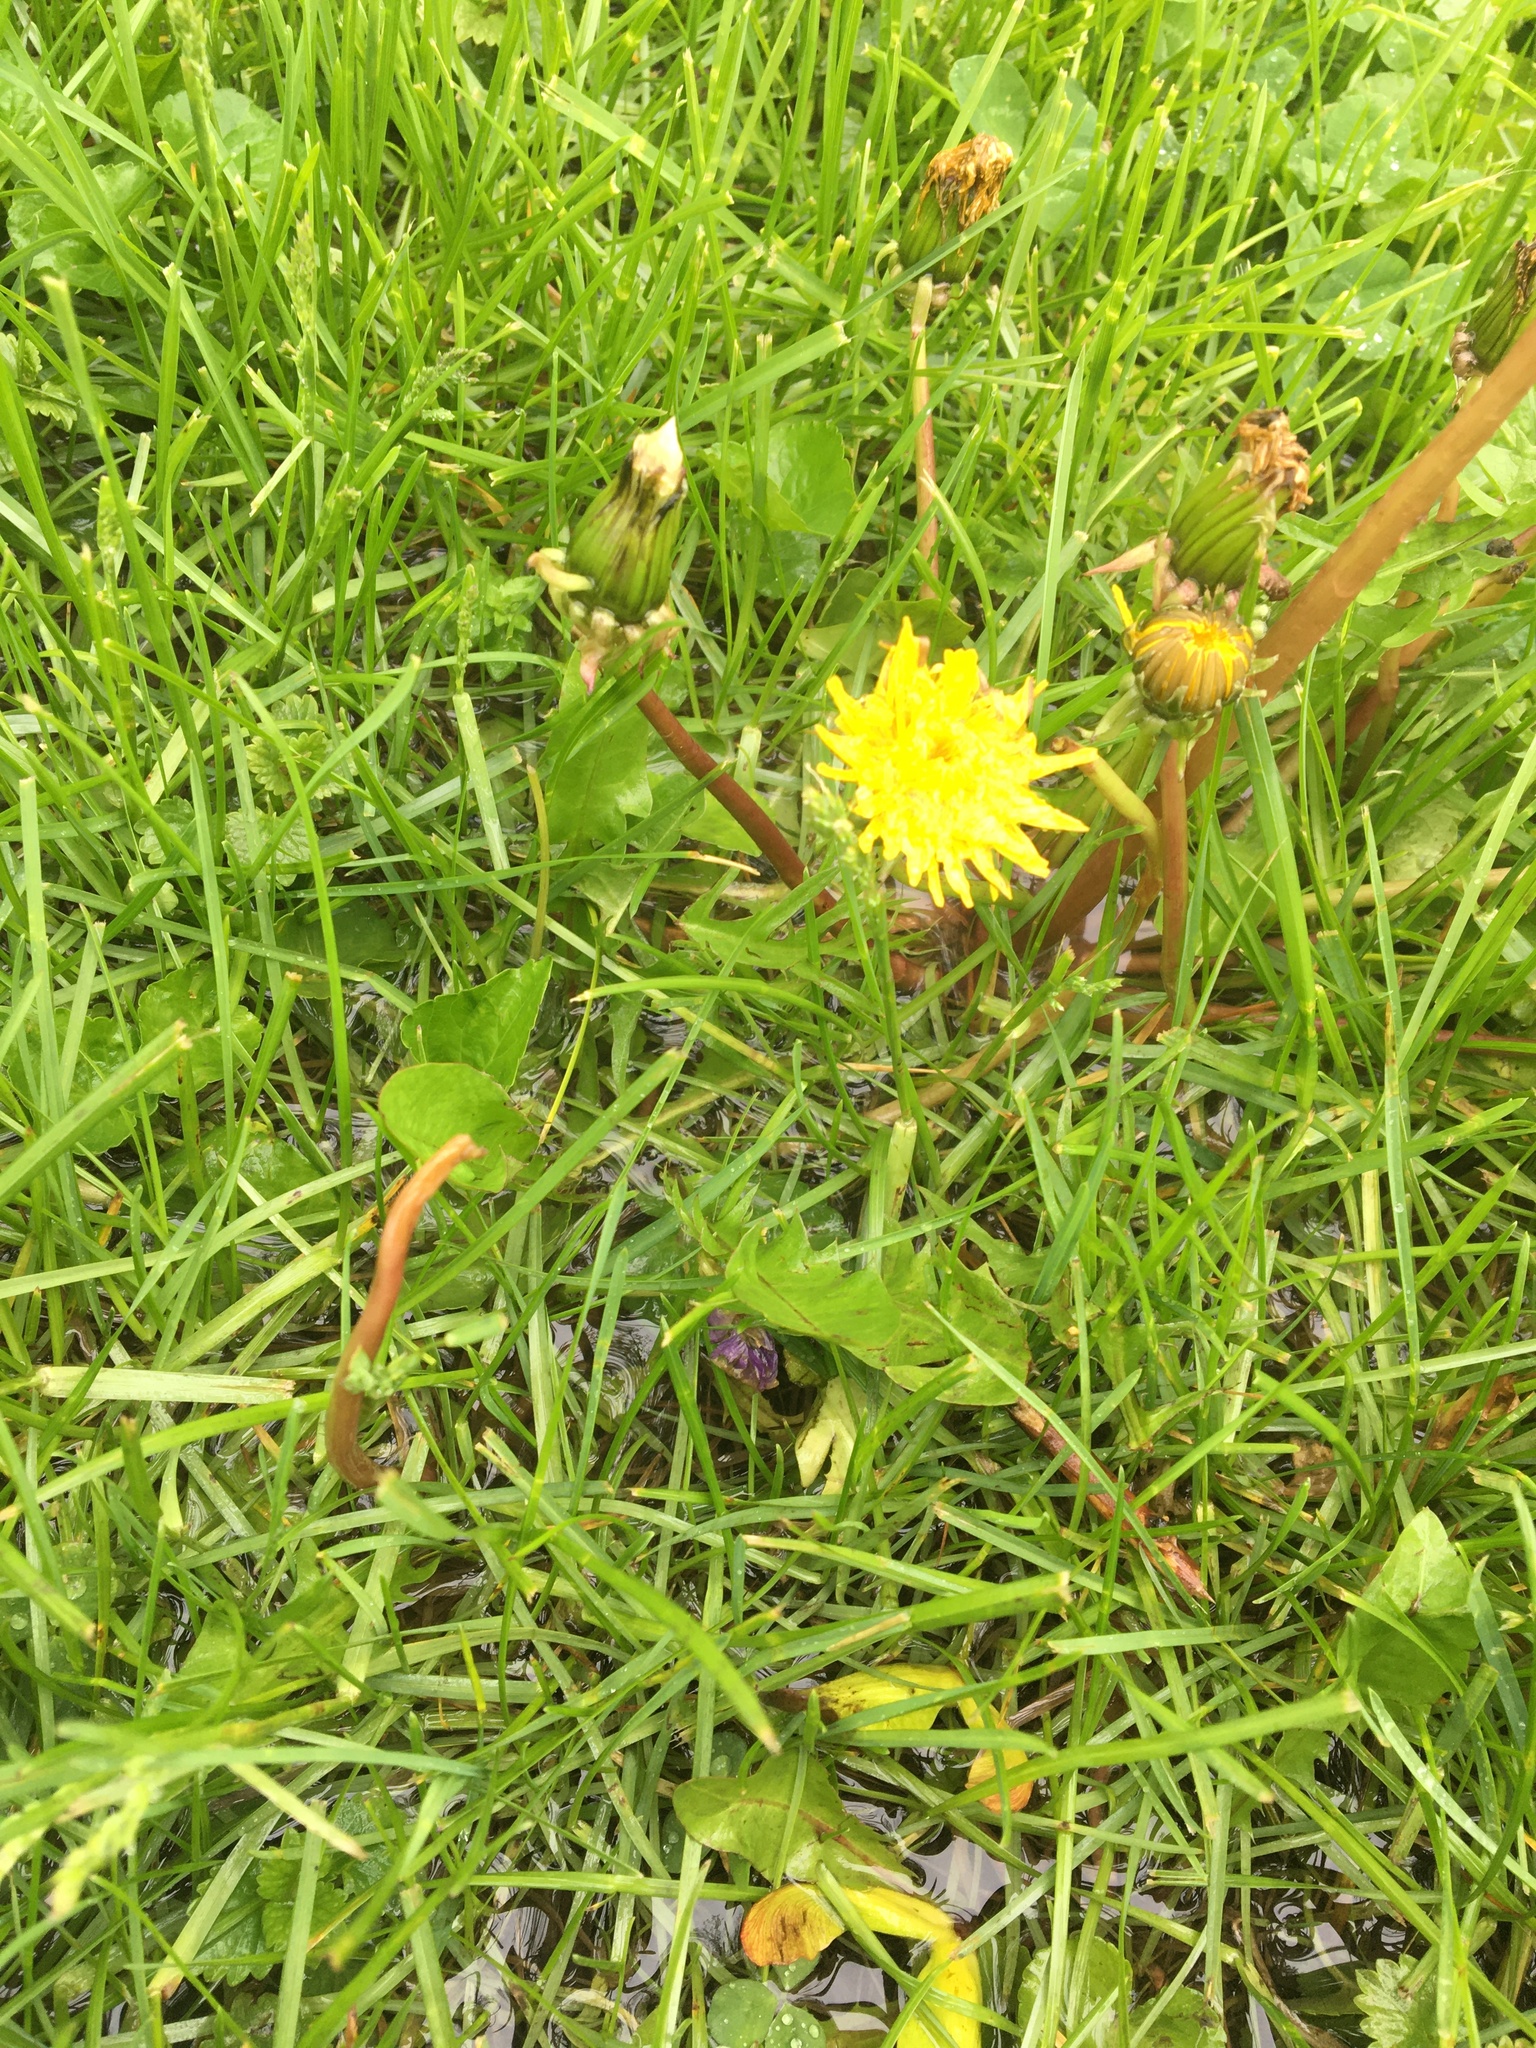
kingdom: Plantae
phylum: Tracheophyta
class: Magnoliopsida
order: Asterales
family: Asteraceae
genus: Taraxacum
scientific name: Taraxacum officinale
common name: Common dandelion
